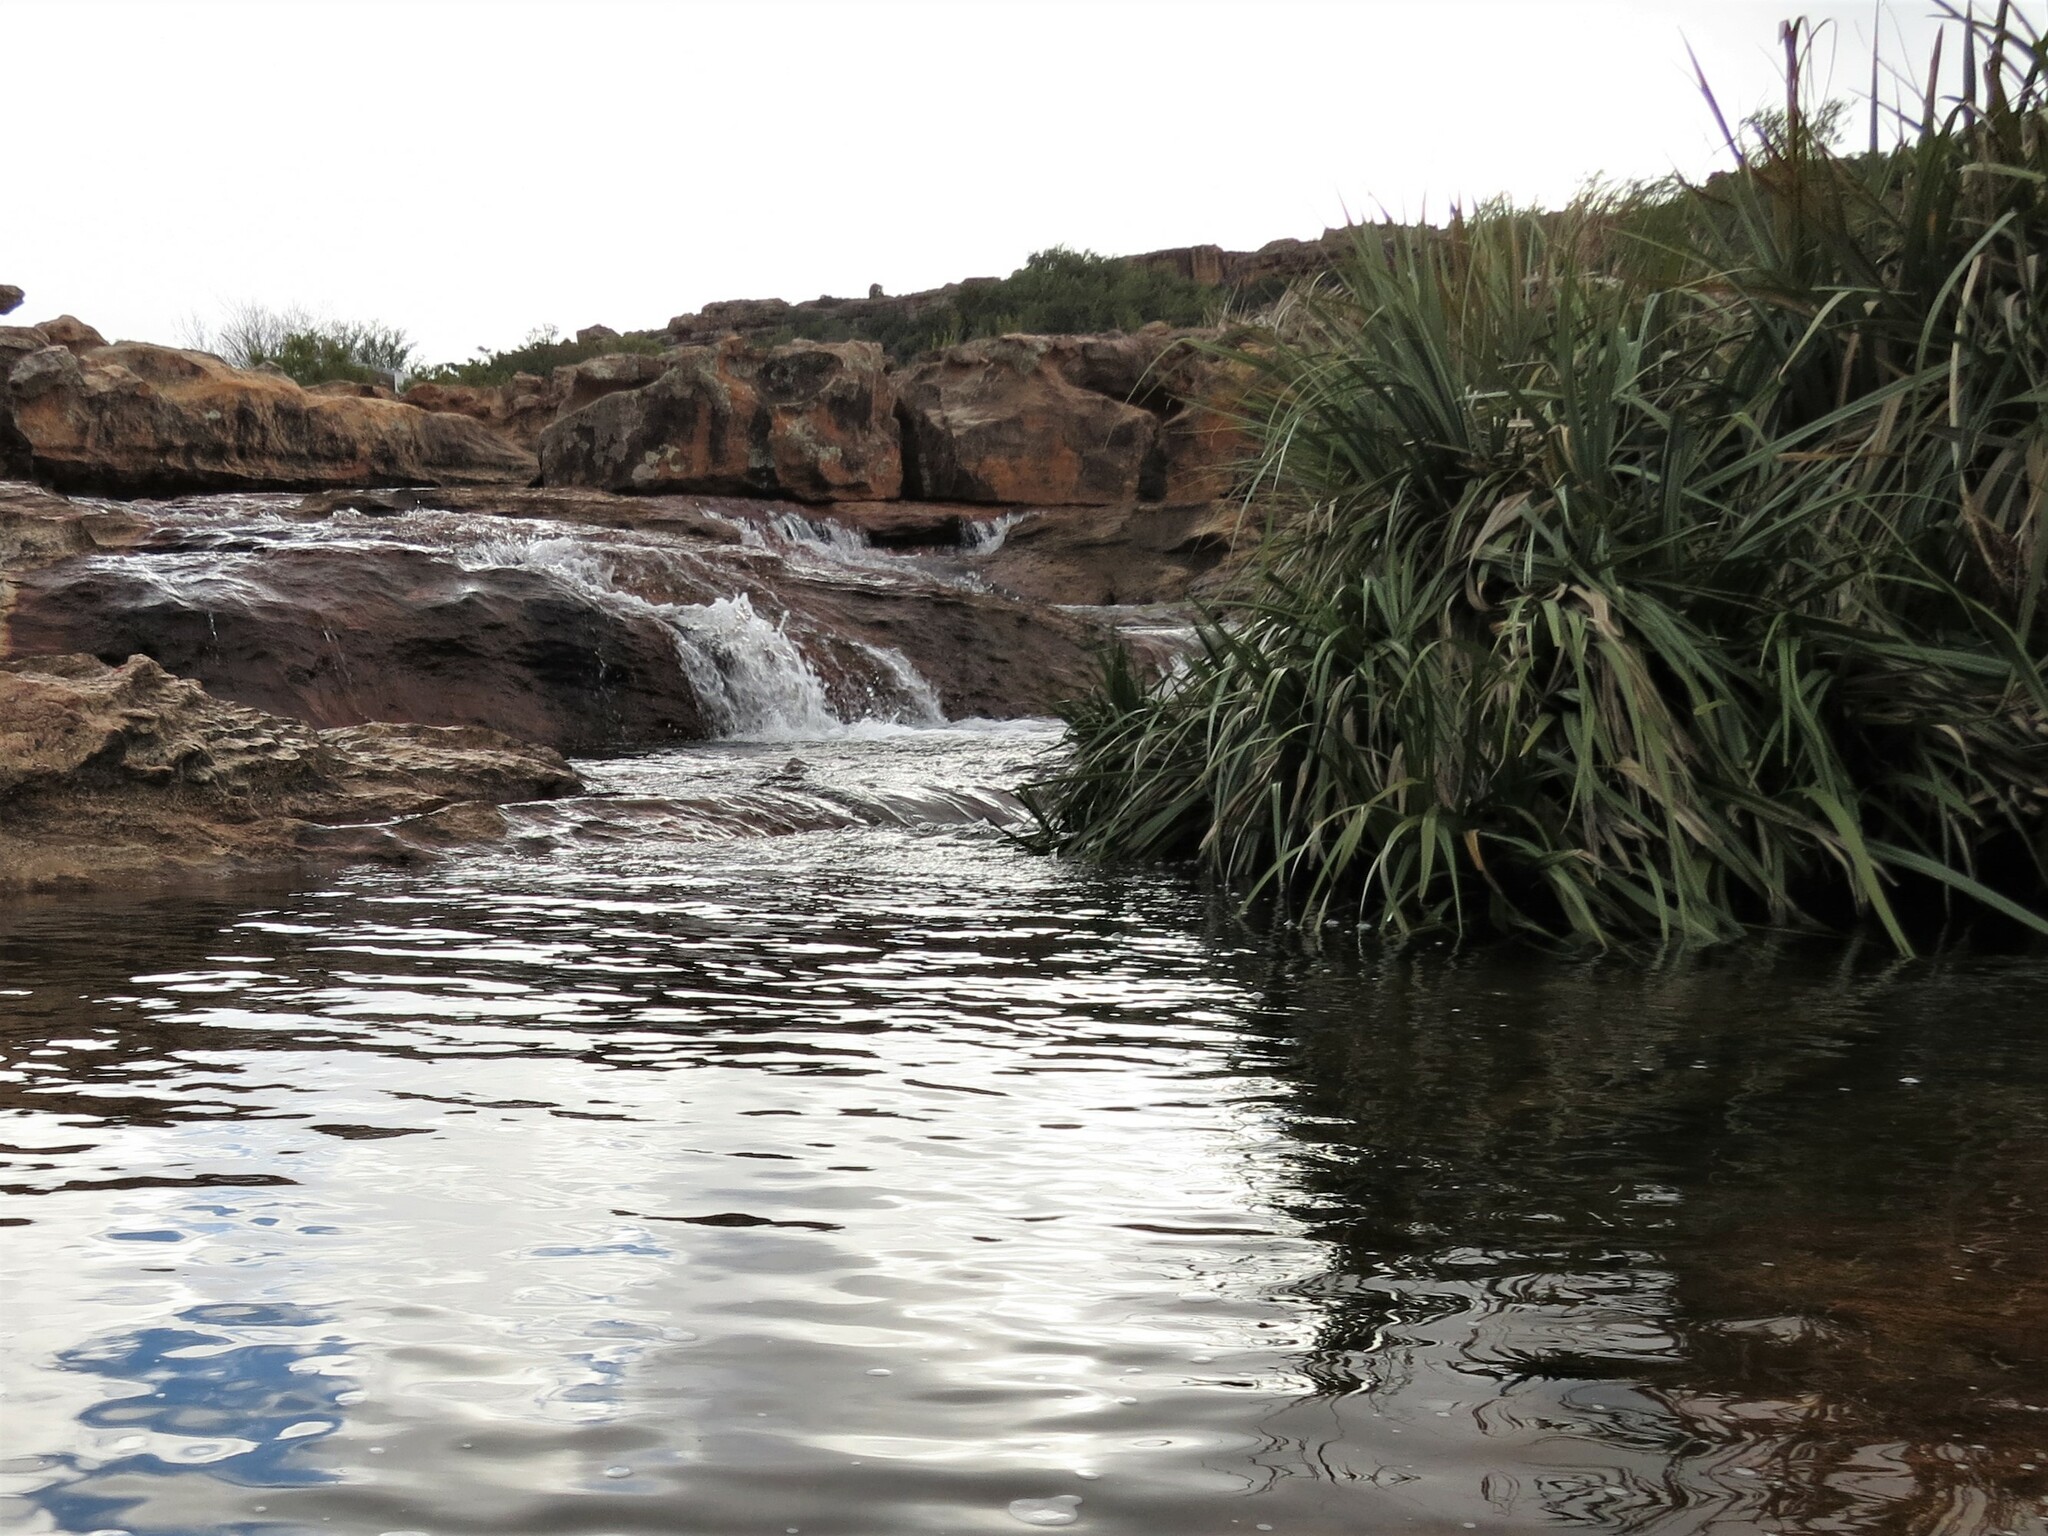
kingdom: Plantae
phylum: Tracheophyta
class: Liliopsida
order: Poales
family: Thurniaceae
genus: Prionium
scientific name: Prionium serratum
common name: Palmiet
